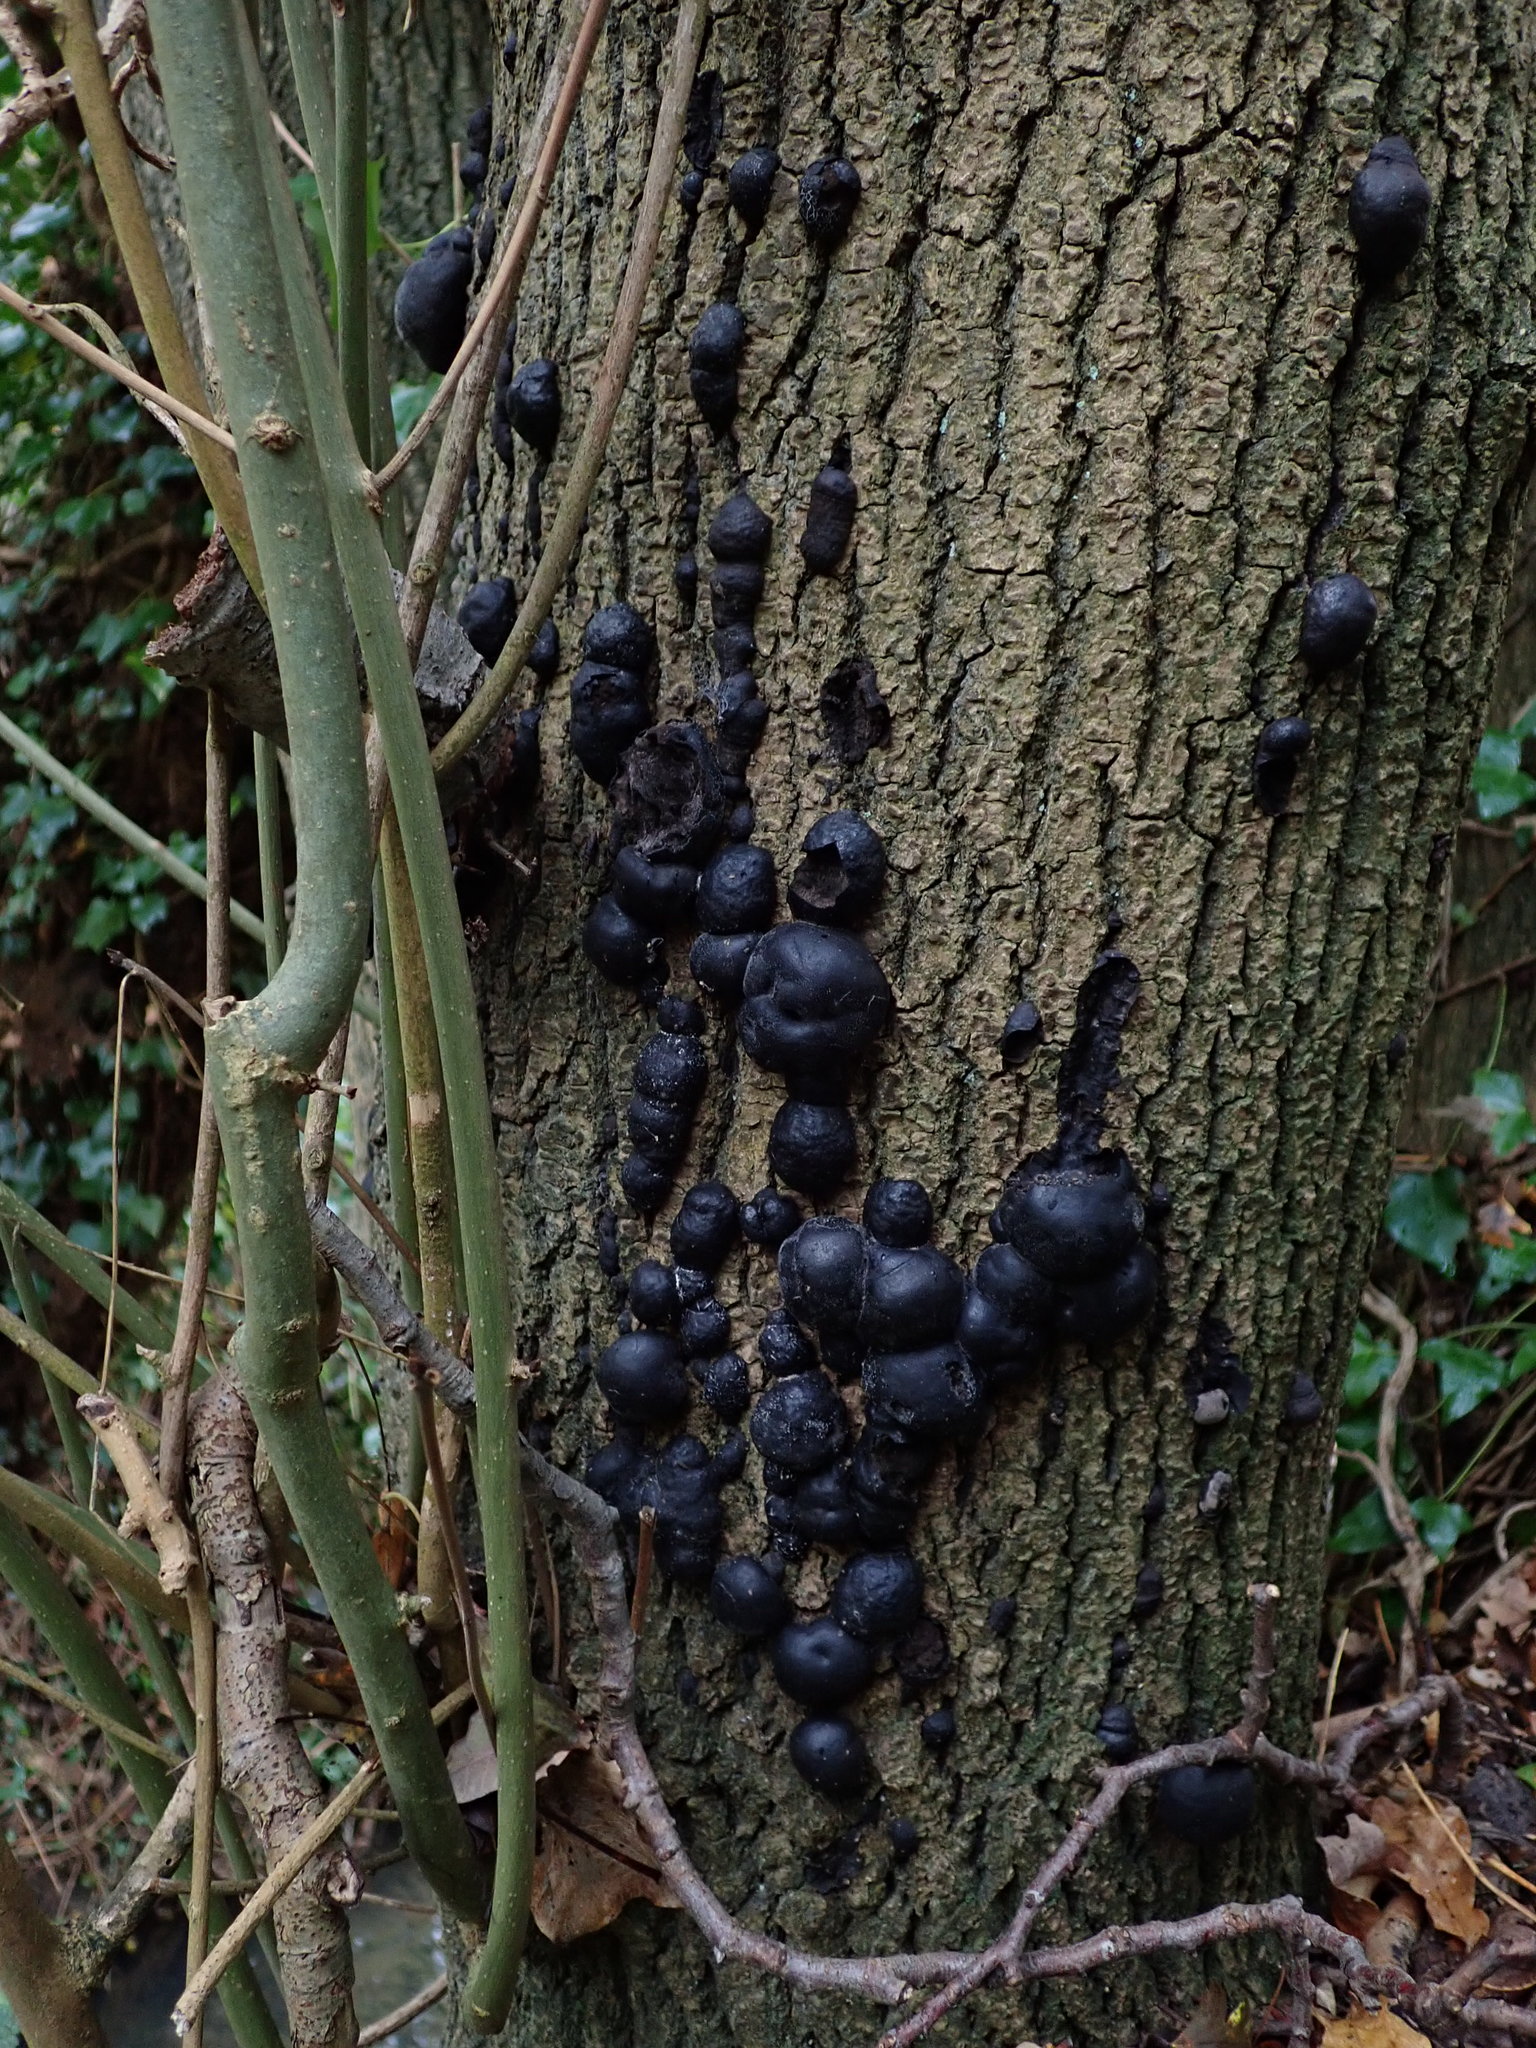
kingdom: Fungi
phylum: Ascomycota
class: Sordariomycetes
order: Xylariales
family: Hypoxylaceae
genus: Daldinia
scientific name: Daldinia concentrica
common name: Cramp balls
